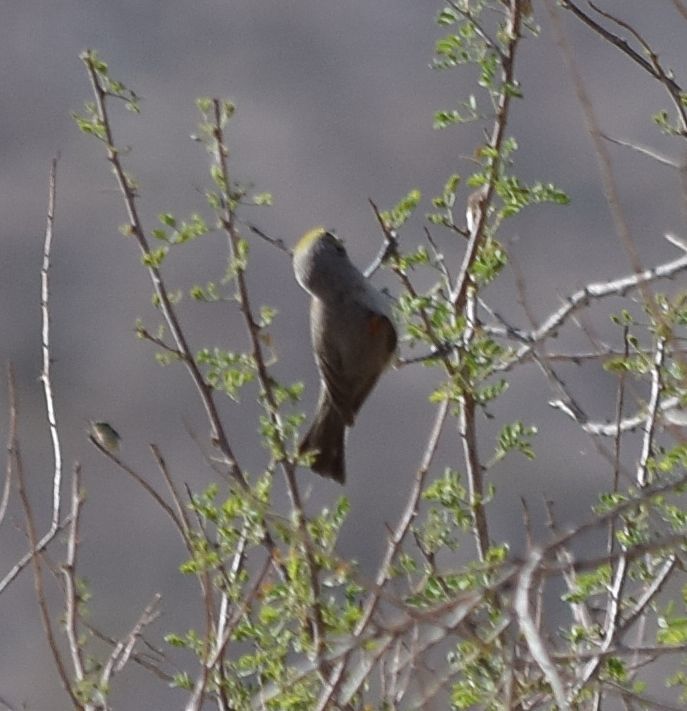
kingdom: Animalia
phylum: Chordata
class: Aves
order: Passeriformes
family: Remizidae
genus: Auriparus
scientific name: Auriparus flaviceps
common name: Verdin
